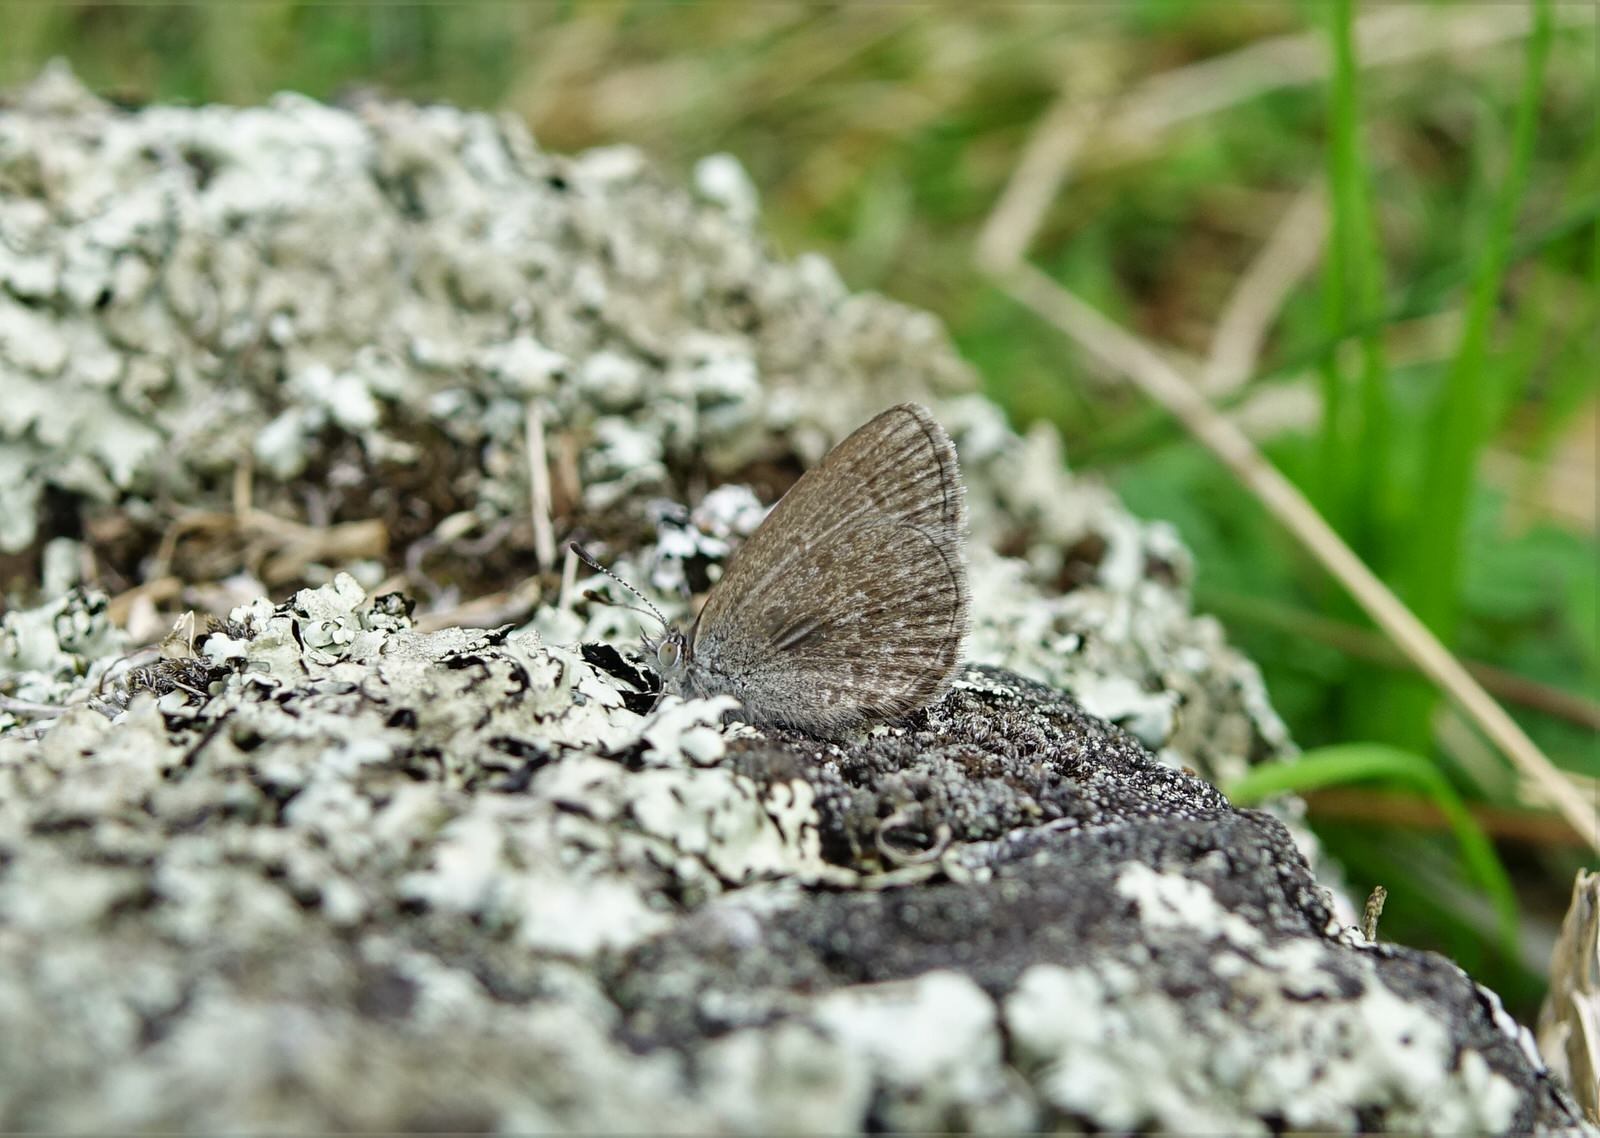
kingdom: Animalia
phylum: Arthropoda
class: Insecta
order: Lepidoptera
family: Lycaenidae
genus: Zizina
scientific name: Zizina labradus
